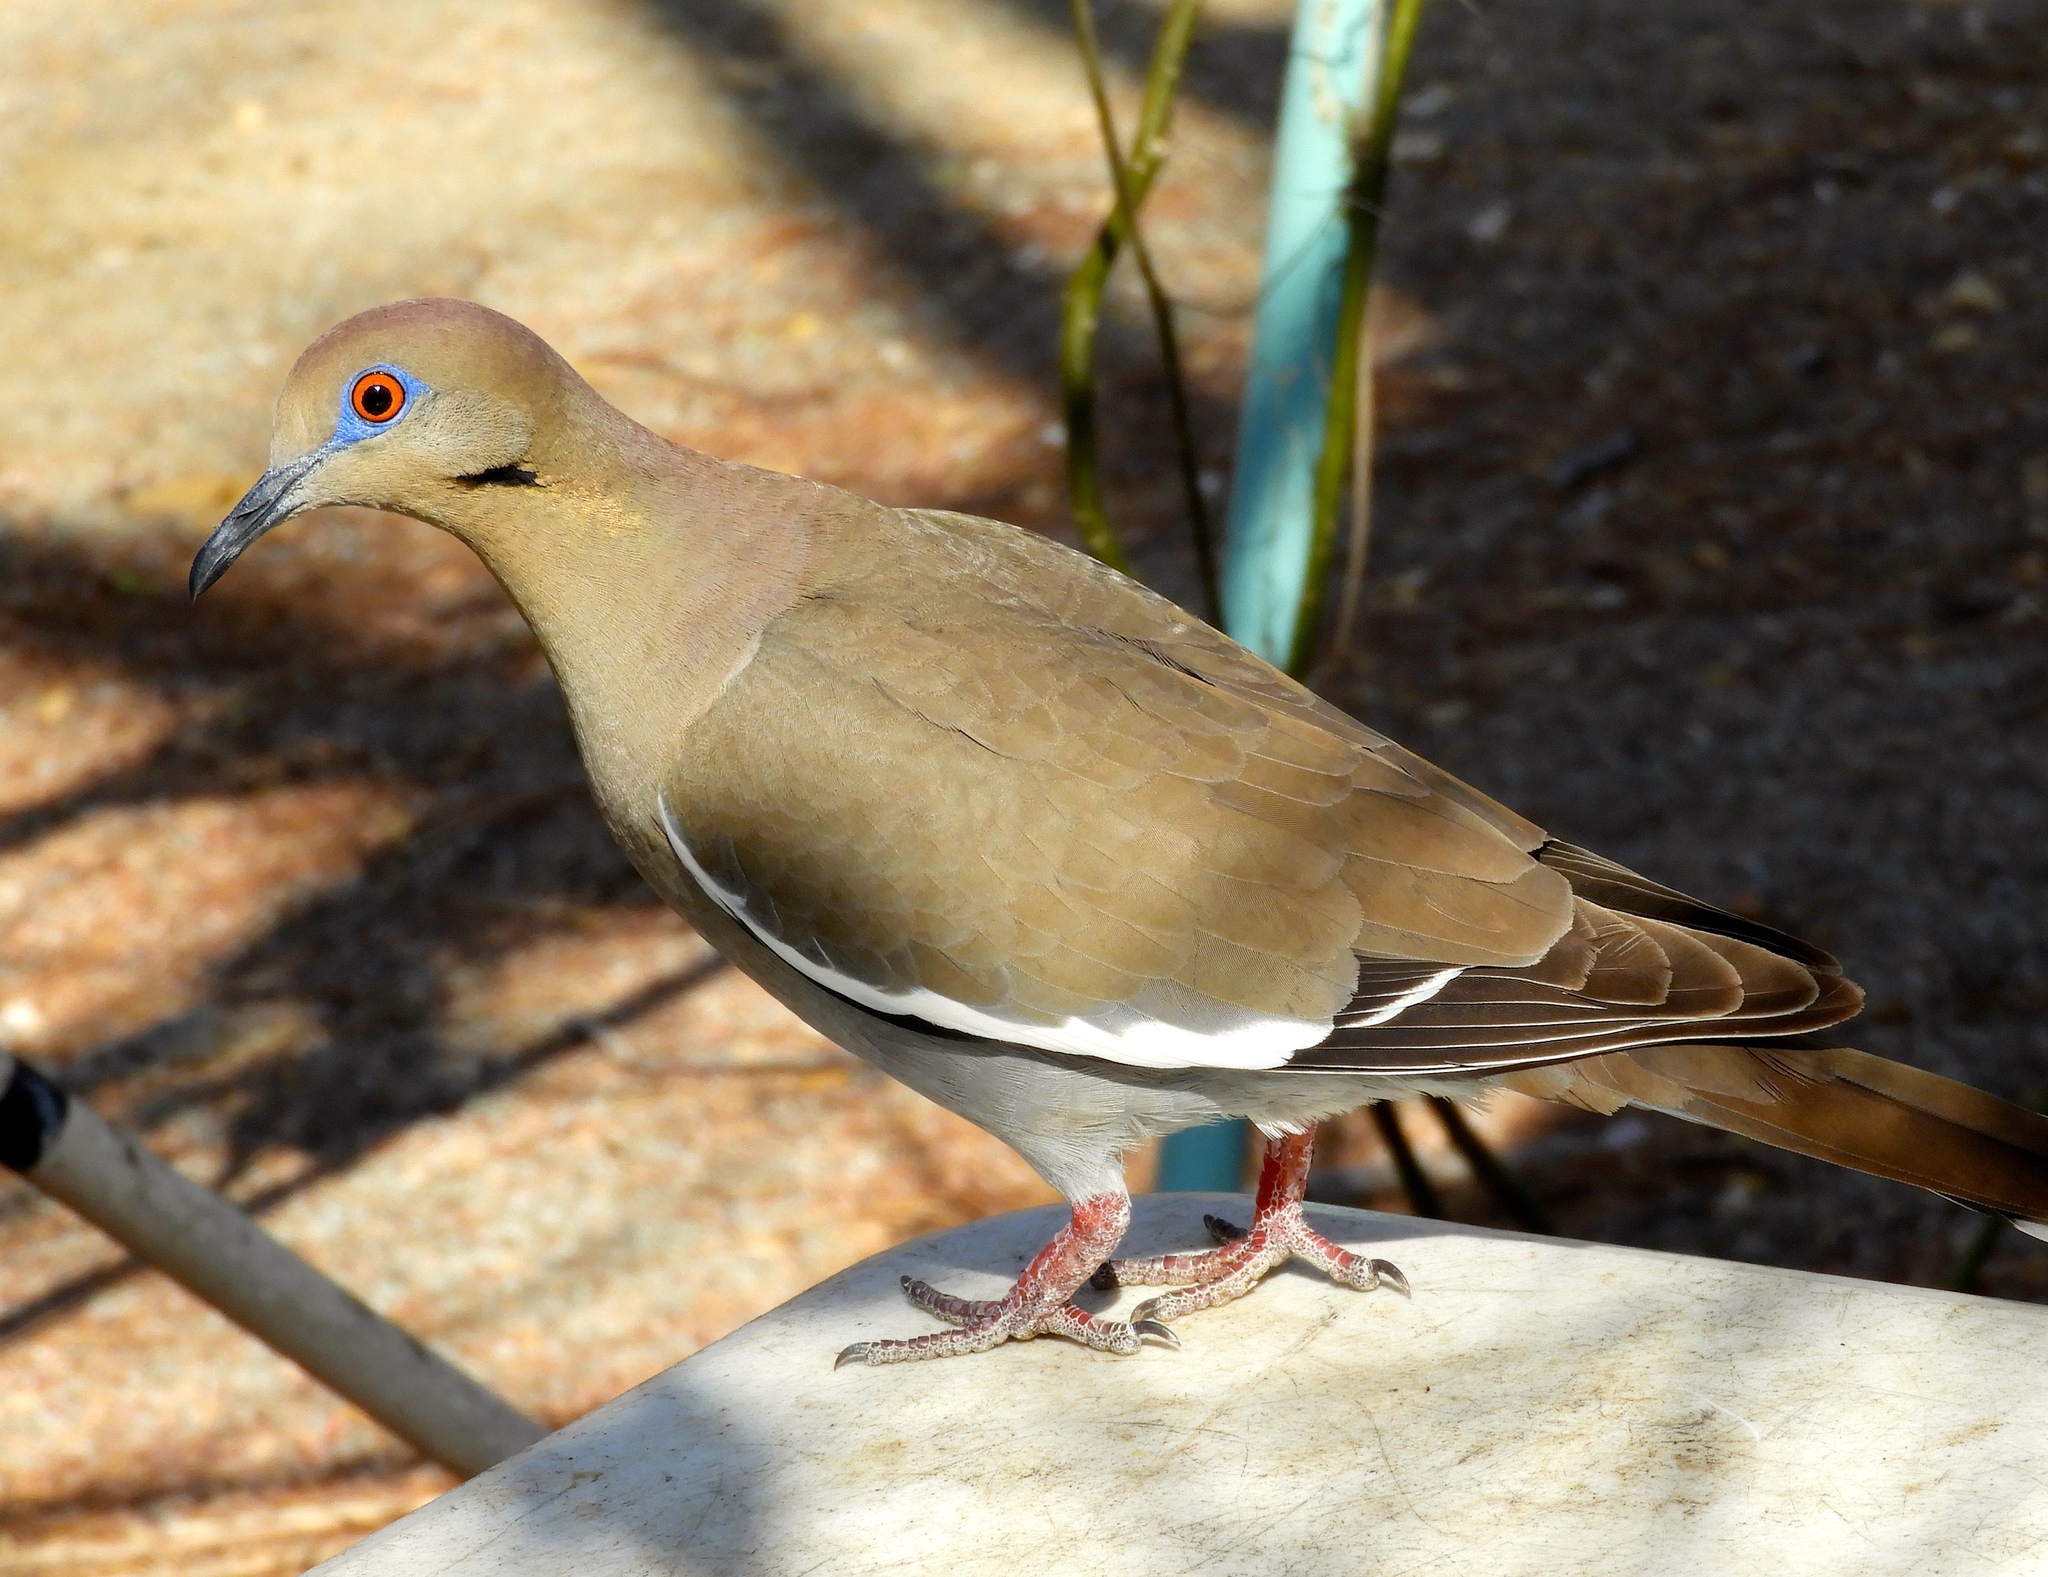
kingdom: Animalia
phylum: Chordata
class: Aves
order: Columbiformes
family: Columbidae
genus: Zenaida
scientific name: Zenaida asiatica
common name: White-winged dove
